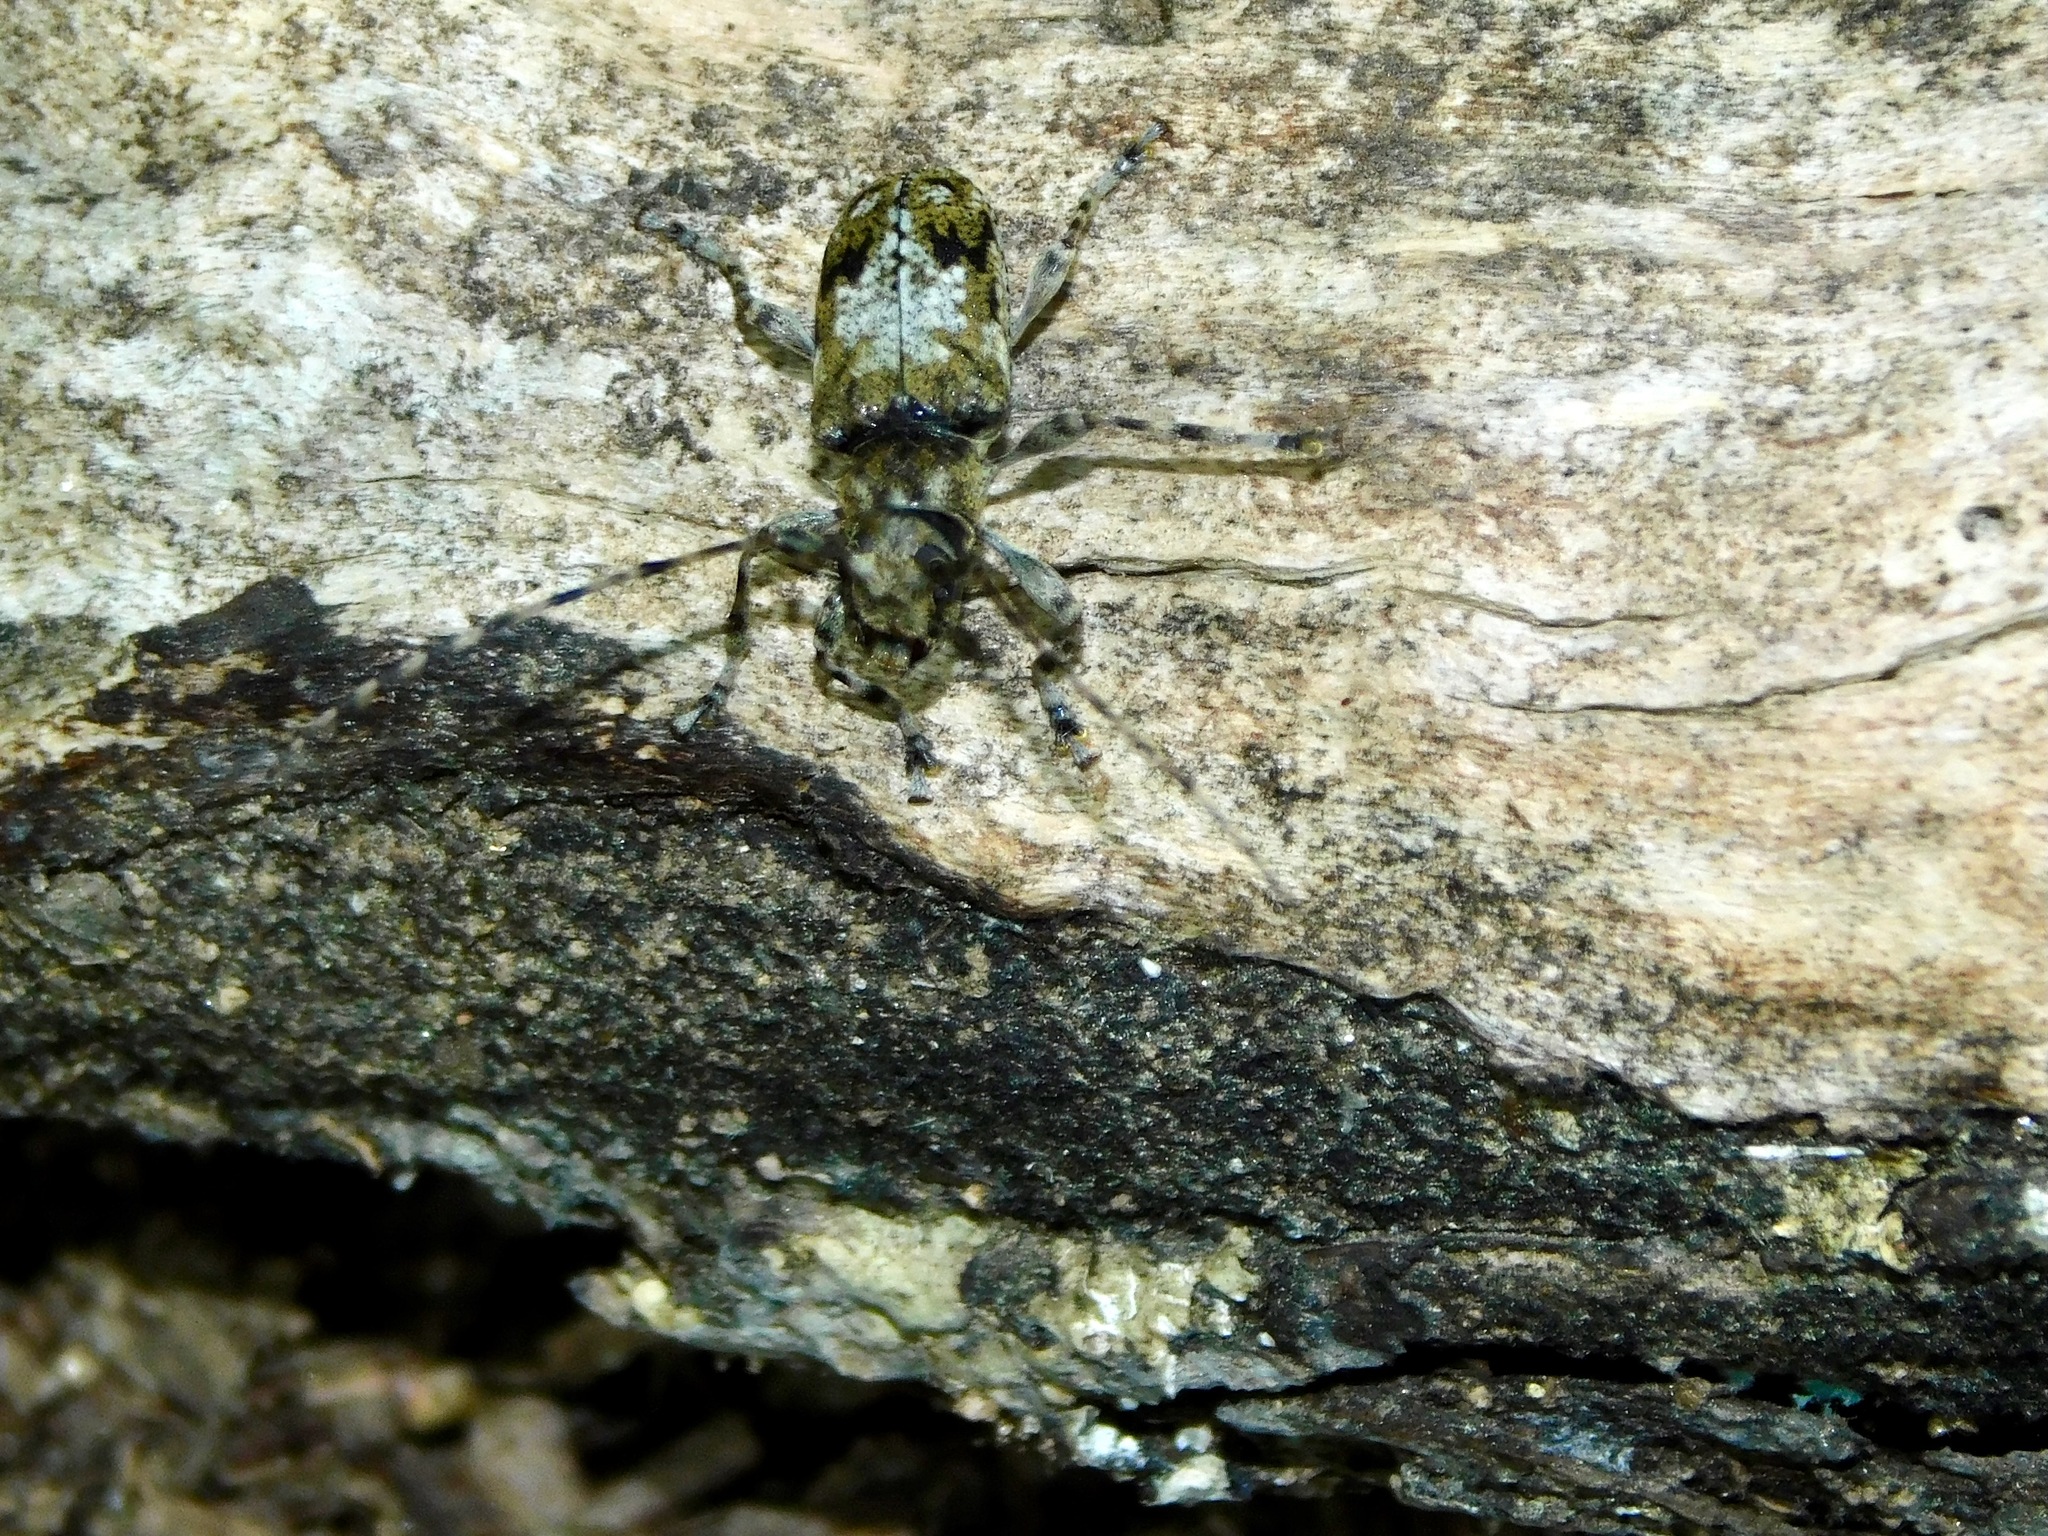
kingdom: Animalia
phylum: Arthropoda
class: Insecta
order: Coleoptera
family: Cerambycidae
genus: Graphisurus
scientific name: Graphisurus fasciatus
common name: Banded graphisurus
